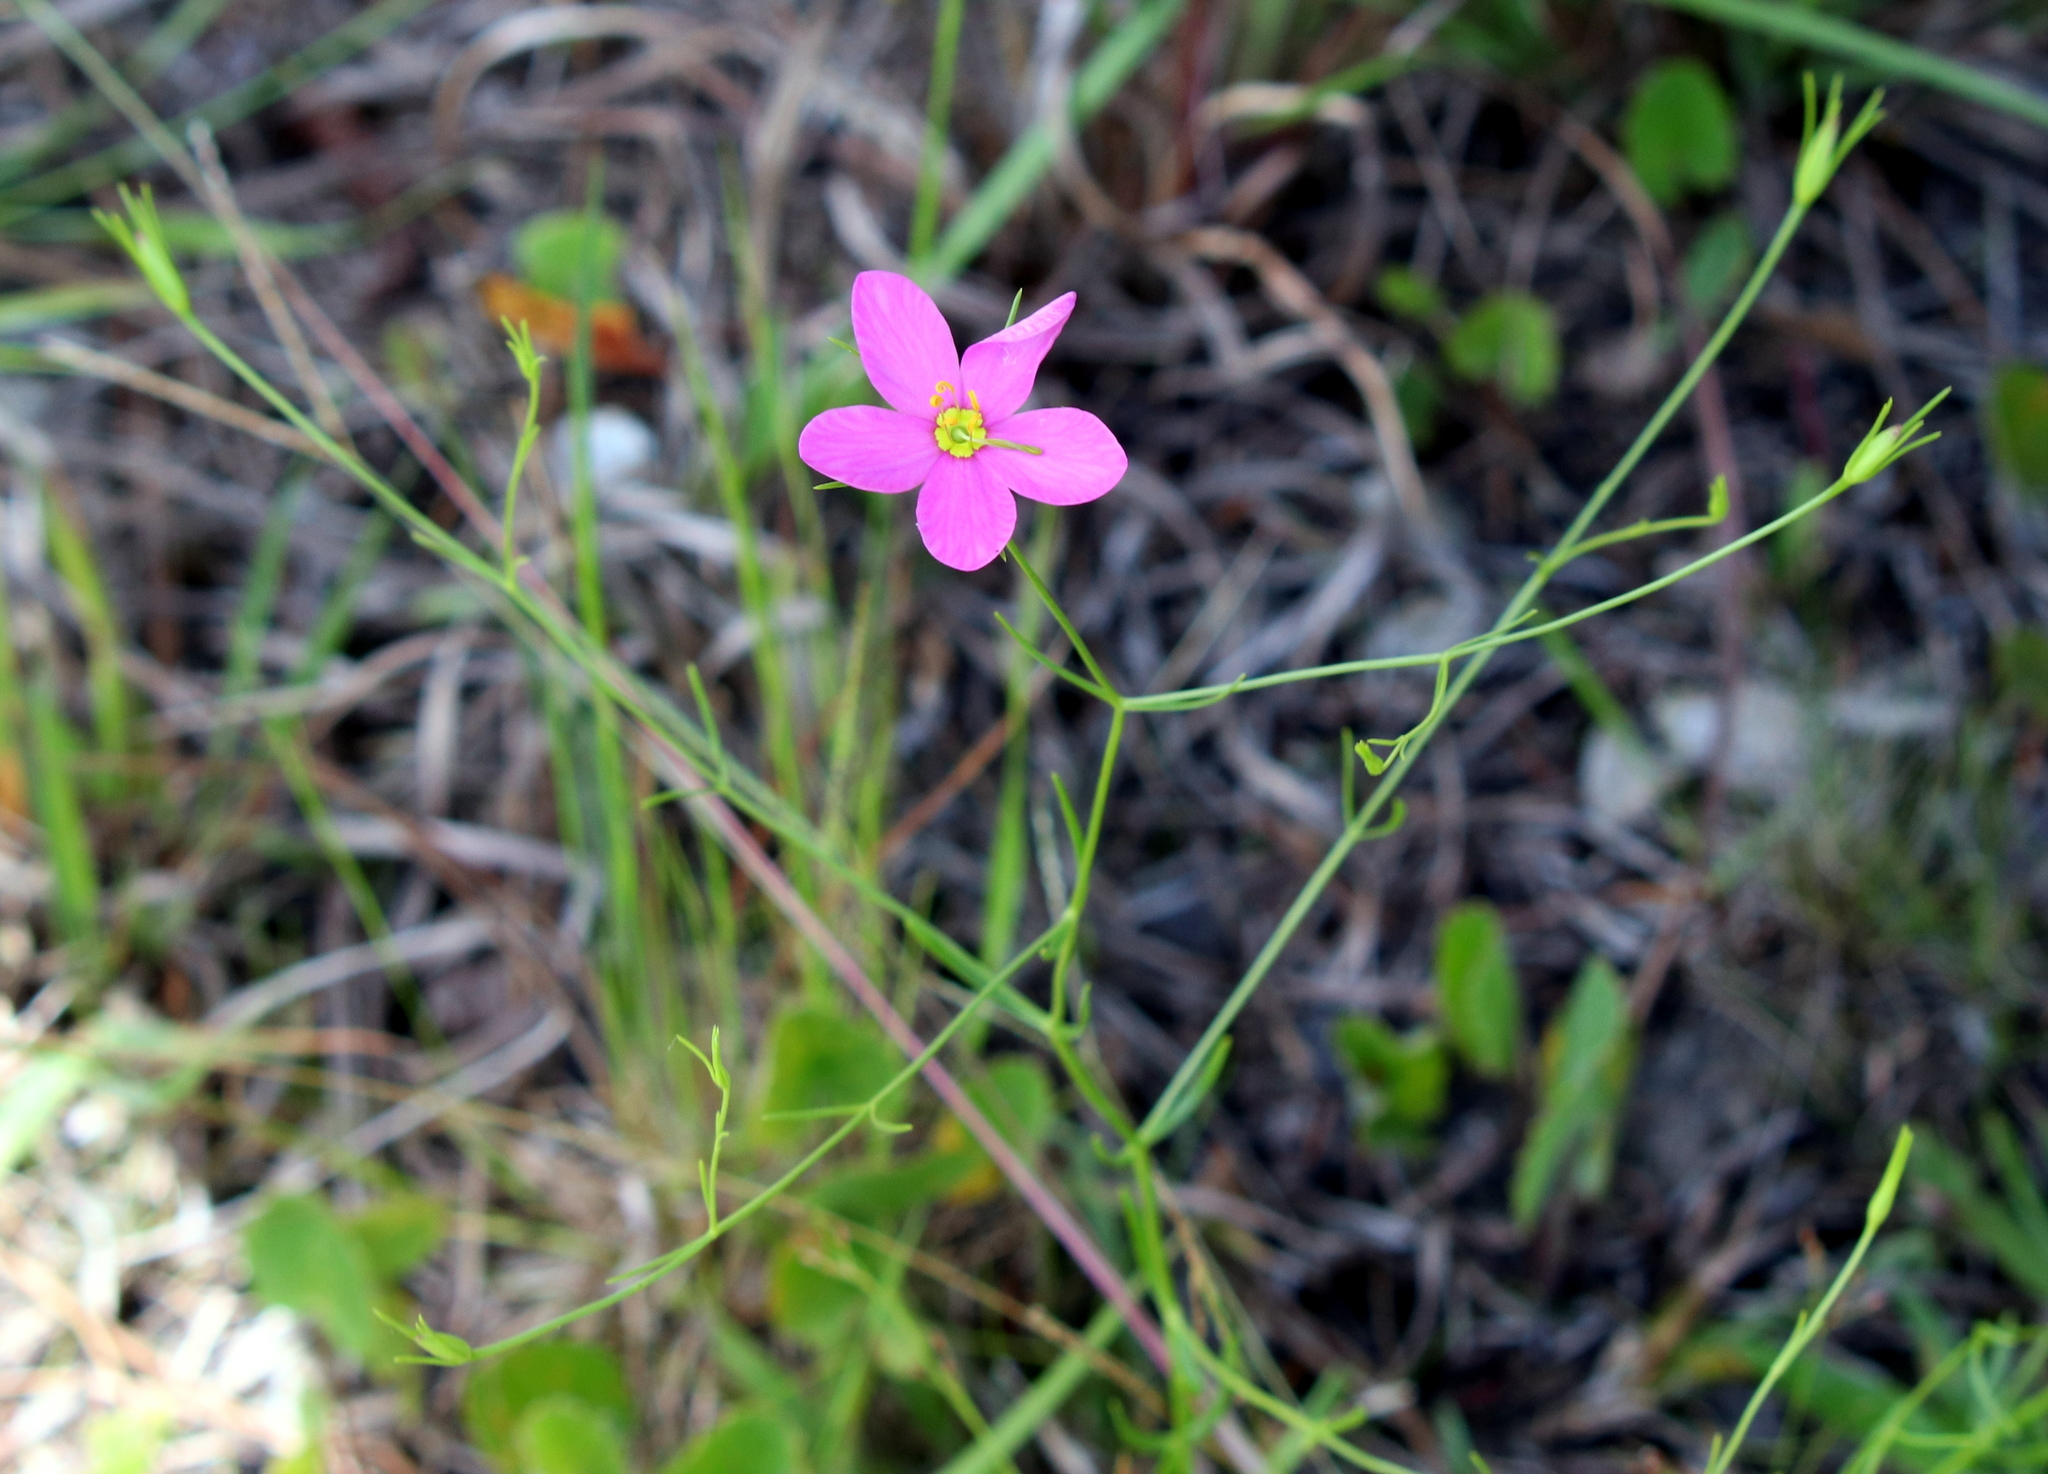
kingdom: Plantae
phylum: Tracheophyta
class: Magnoliopsida
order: Gentianales
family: Gentianaceae
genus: Sabatia
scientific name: Sabatia campanulata
